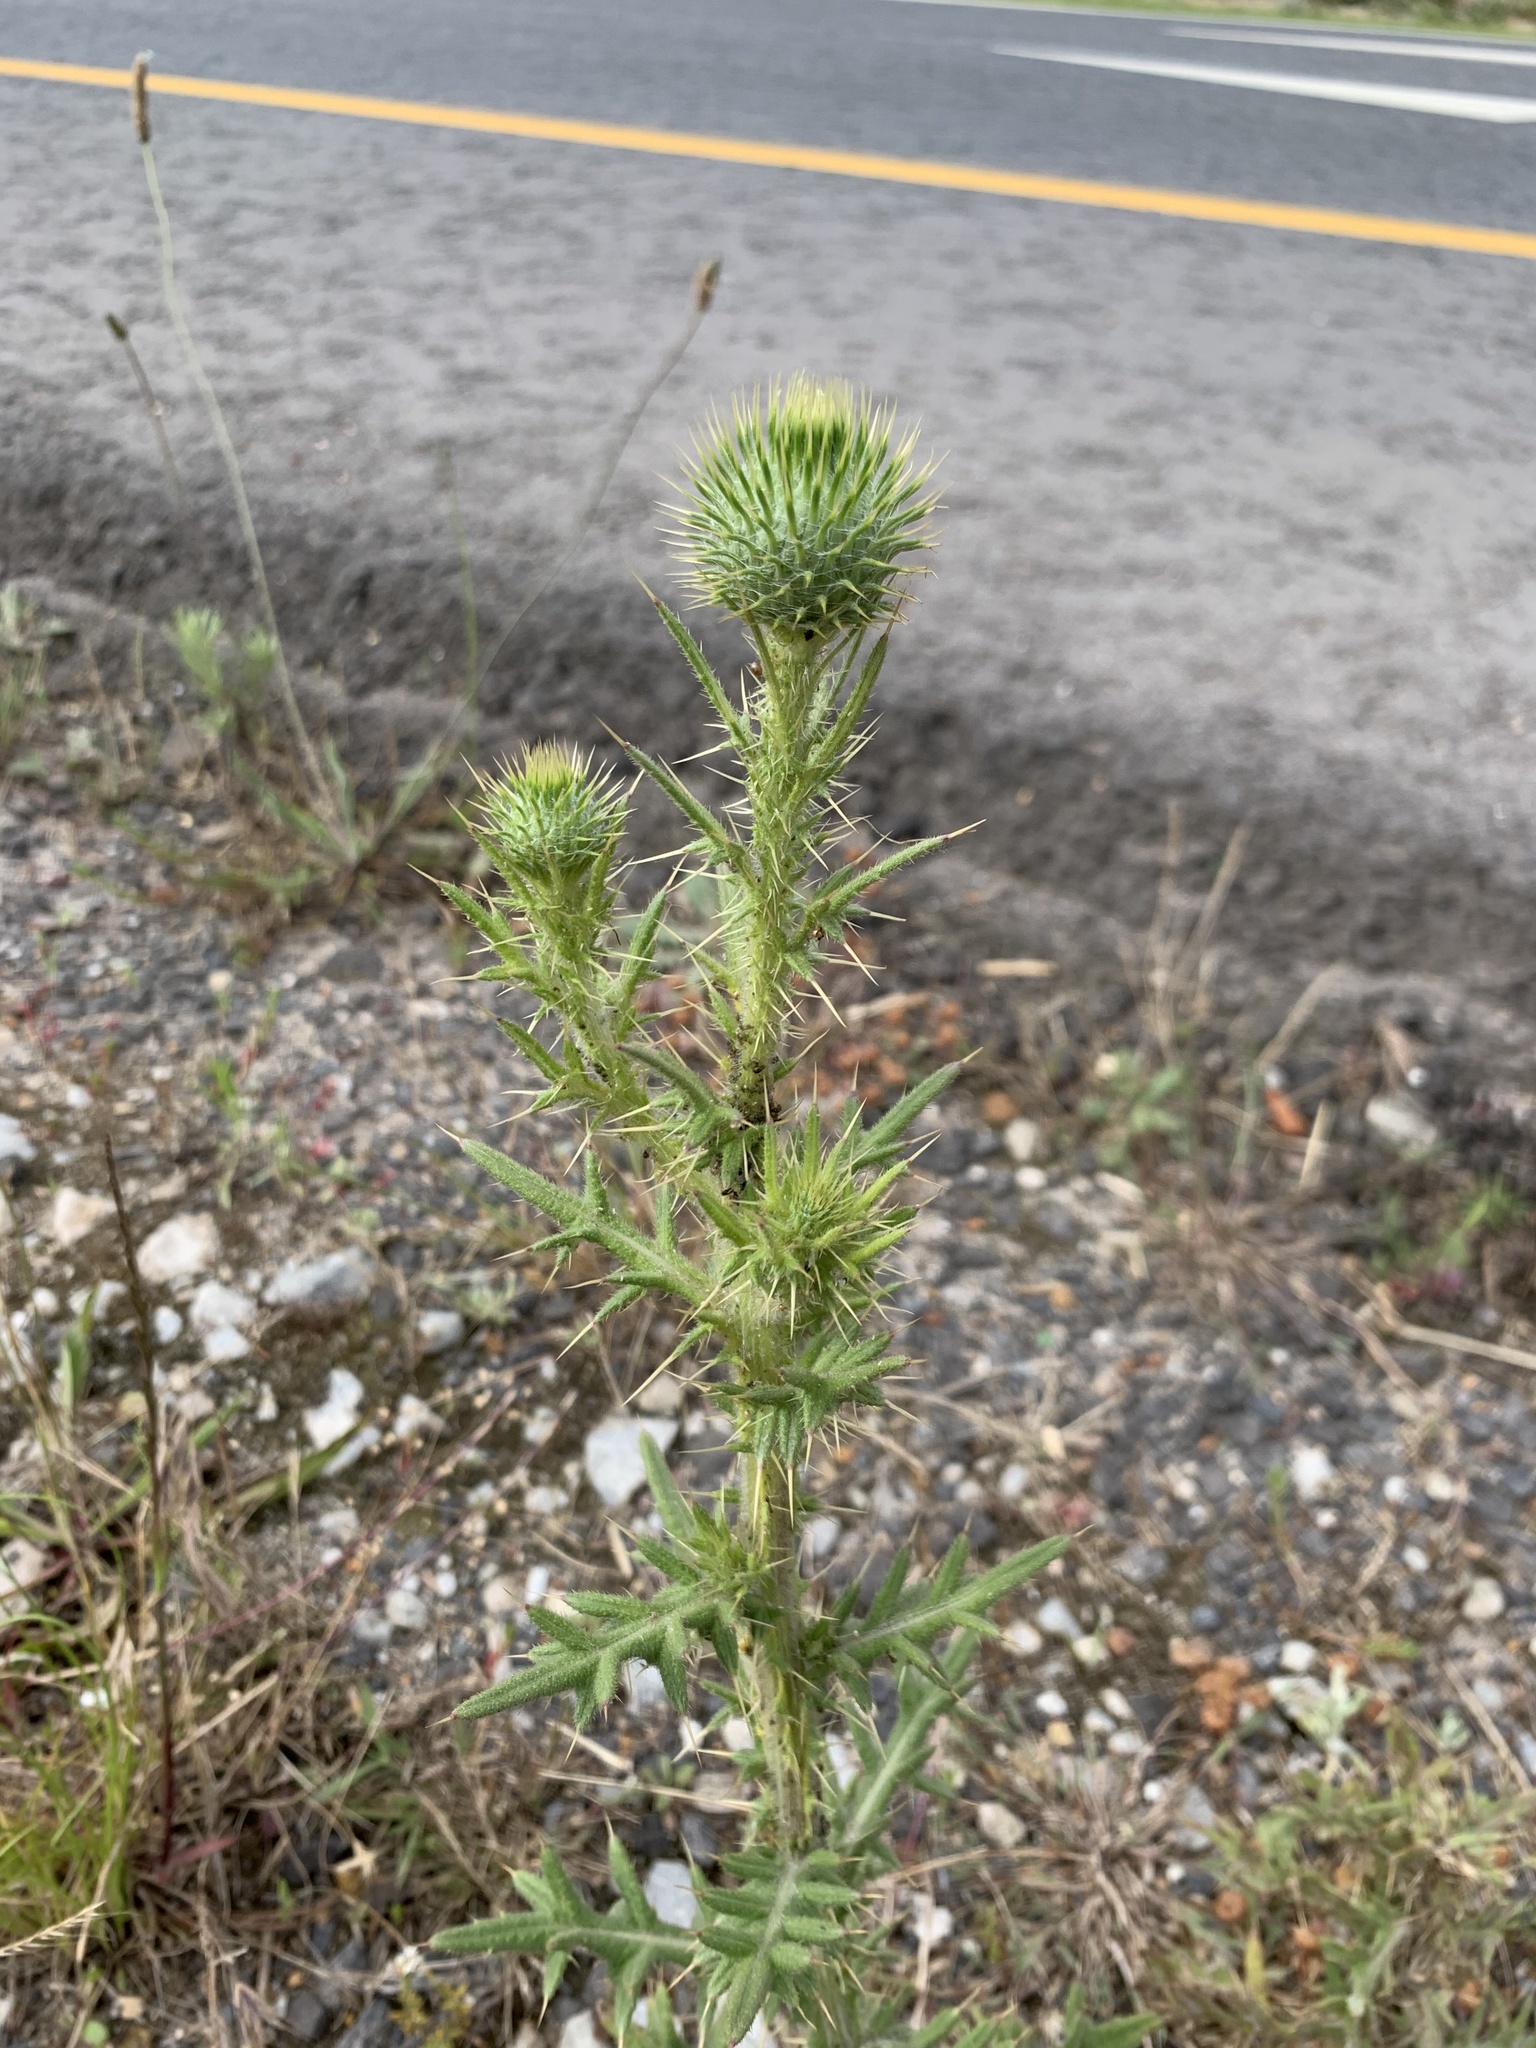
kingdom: Plantae
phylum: Tracheophyta
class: Magnoliopsida
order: Asterales
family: Asteraceae
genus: Cirsium
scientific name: Cirsium vulgare
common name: Bull thistle
